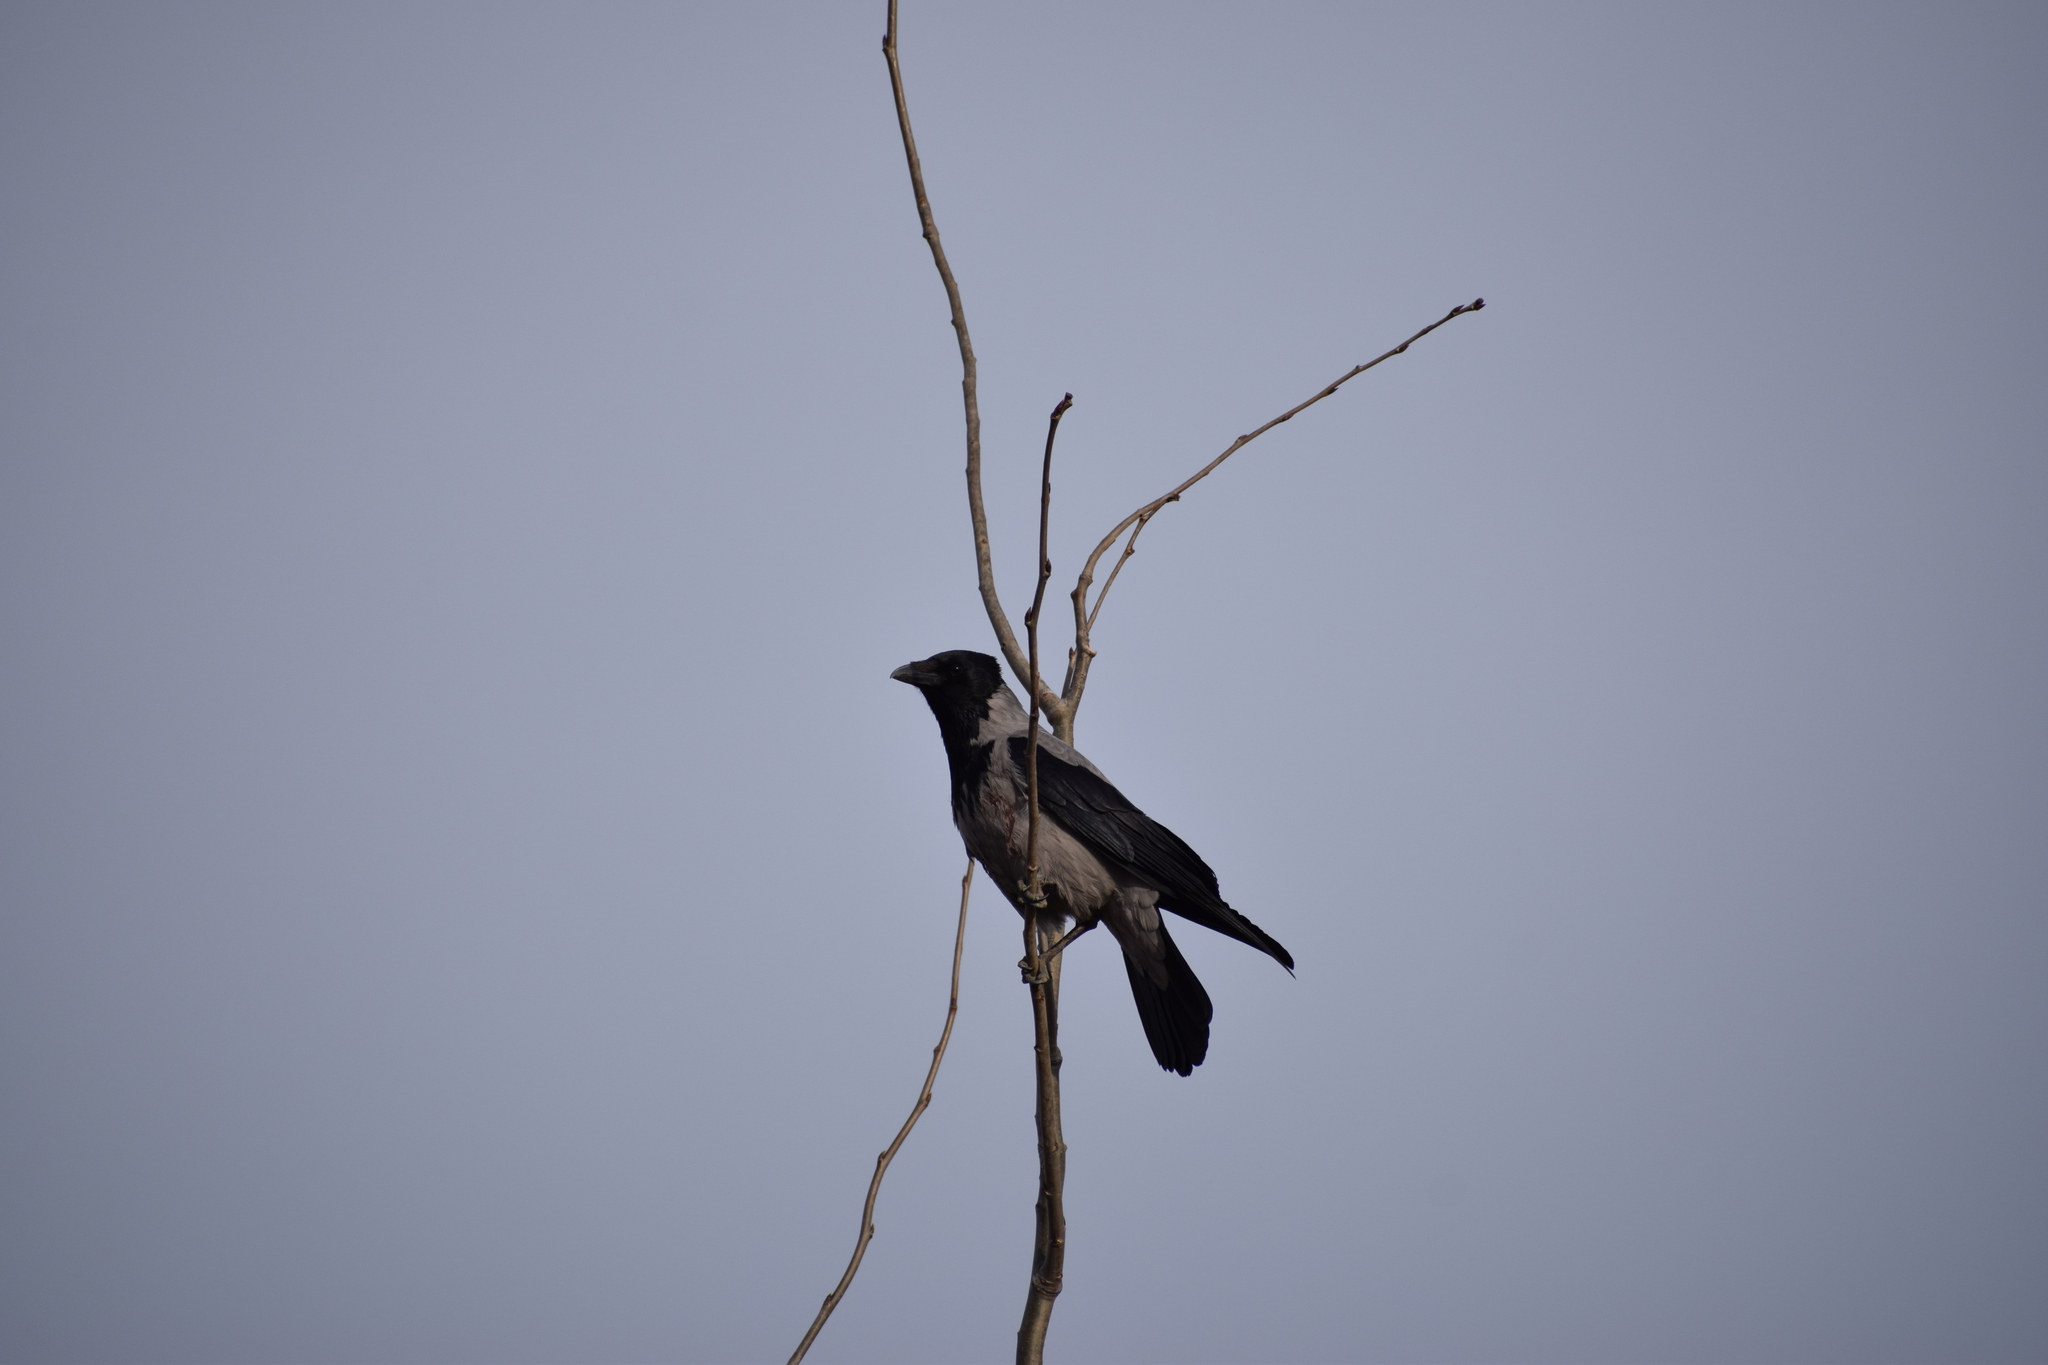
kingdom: Animalia
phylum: Chordata
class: Aves
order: Passeriformes
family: Corvidae
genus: Corvus
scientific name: Corvus cornix
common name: Hooded crow
